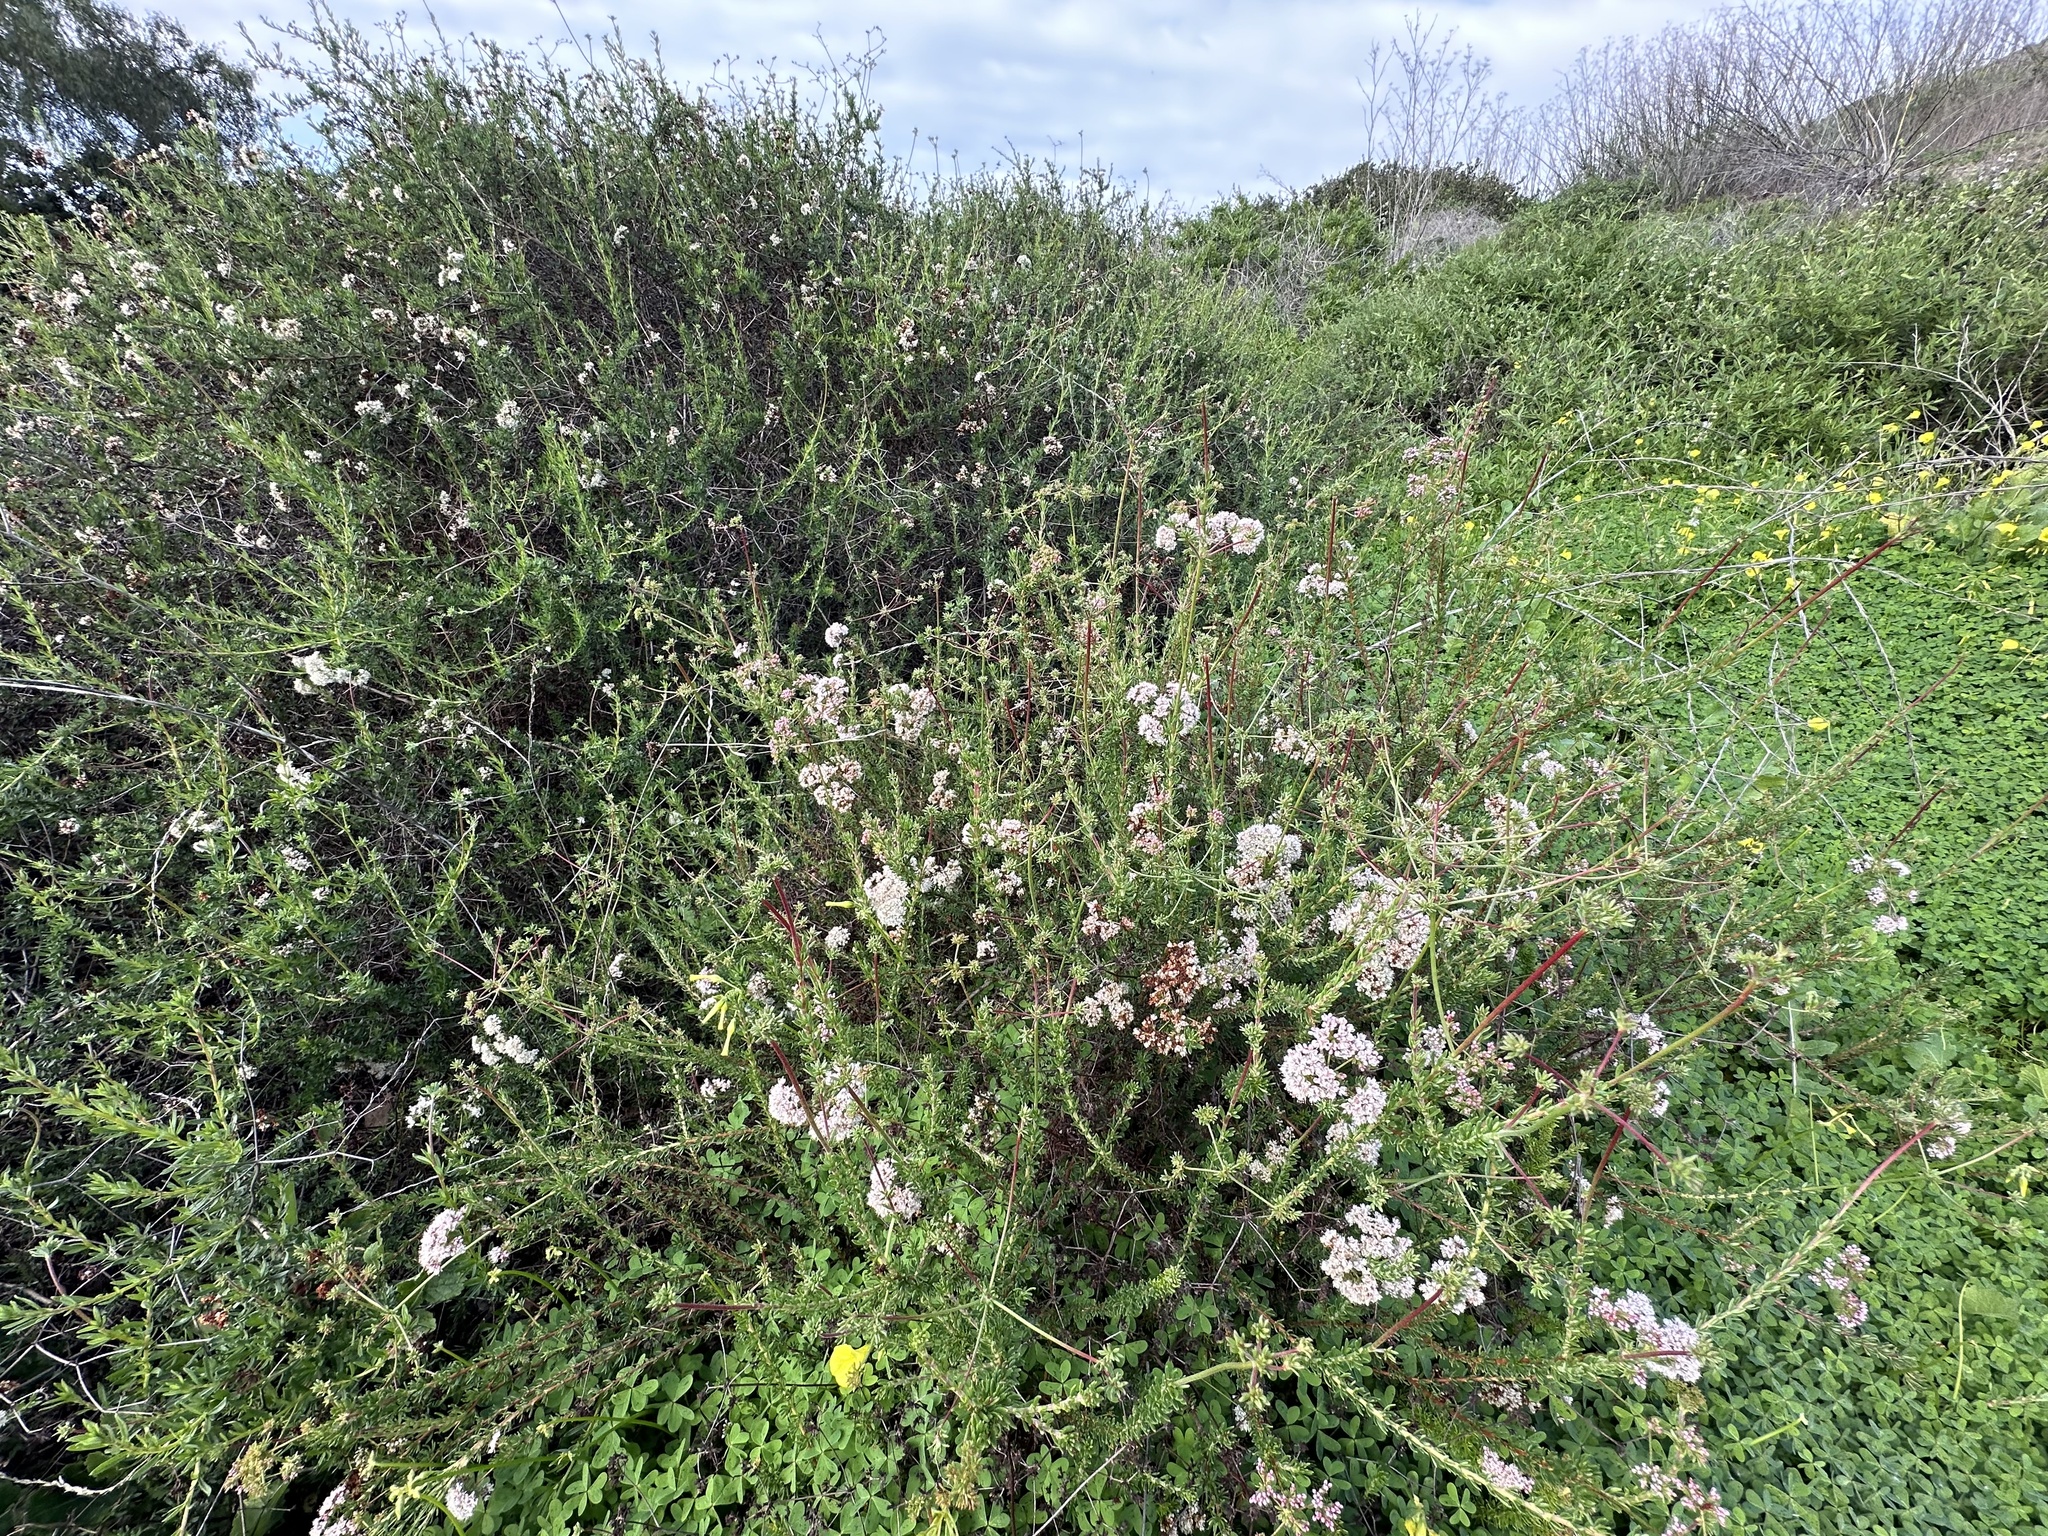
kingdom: Plantae
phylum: Tracheophyta
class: Magnoliopsida
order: Caryophyllales
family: Polygonaceae
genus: Eriogonum
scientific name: Eriogonum fasciculatum
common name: California wild buckwheat
